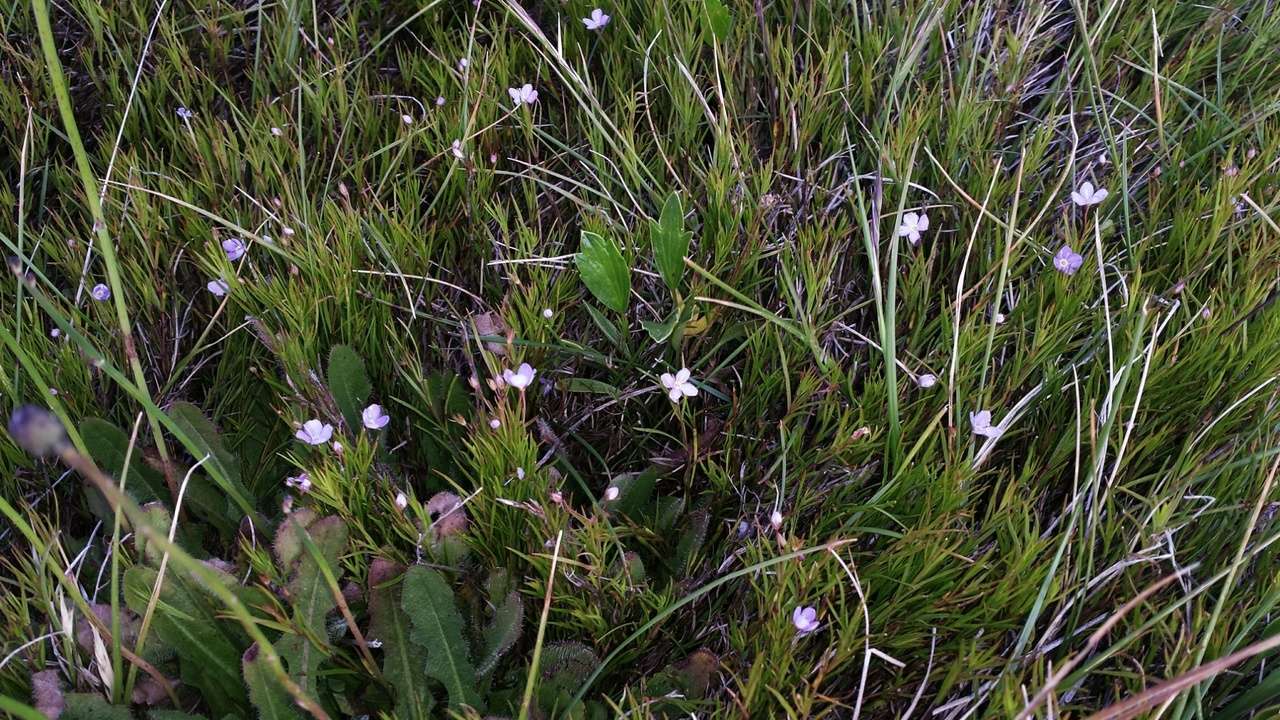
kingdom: Plantae
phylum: Tracheophyta
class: Magnoliopsida
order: Lamiales
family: Plantaginaceae
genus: Veronica
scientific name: Veronica gracilis
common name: Slender speedwell
